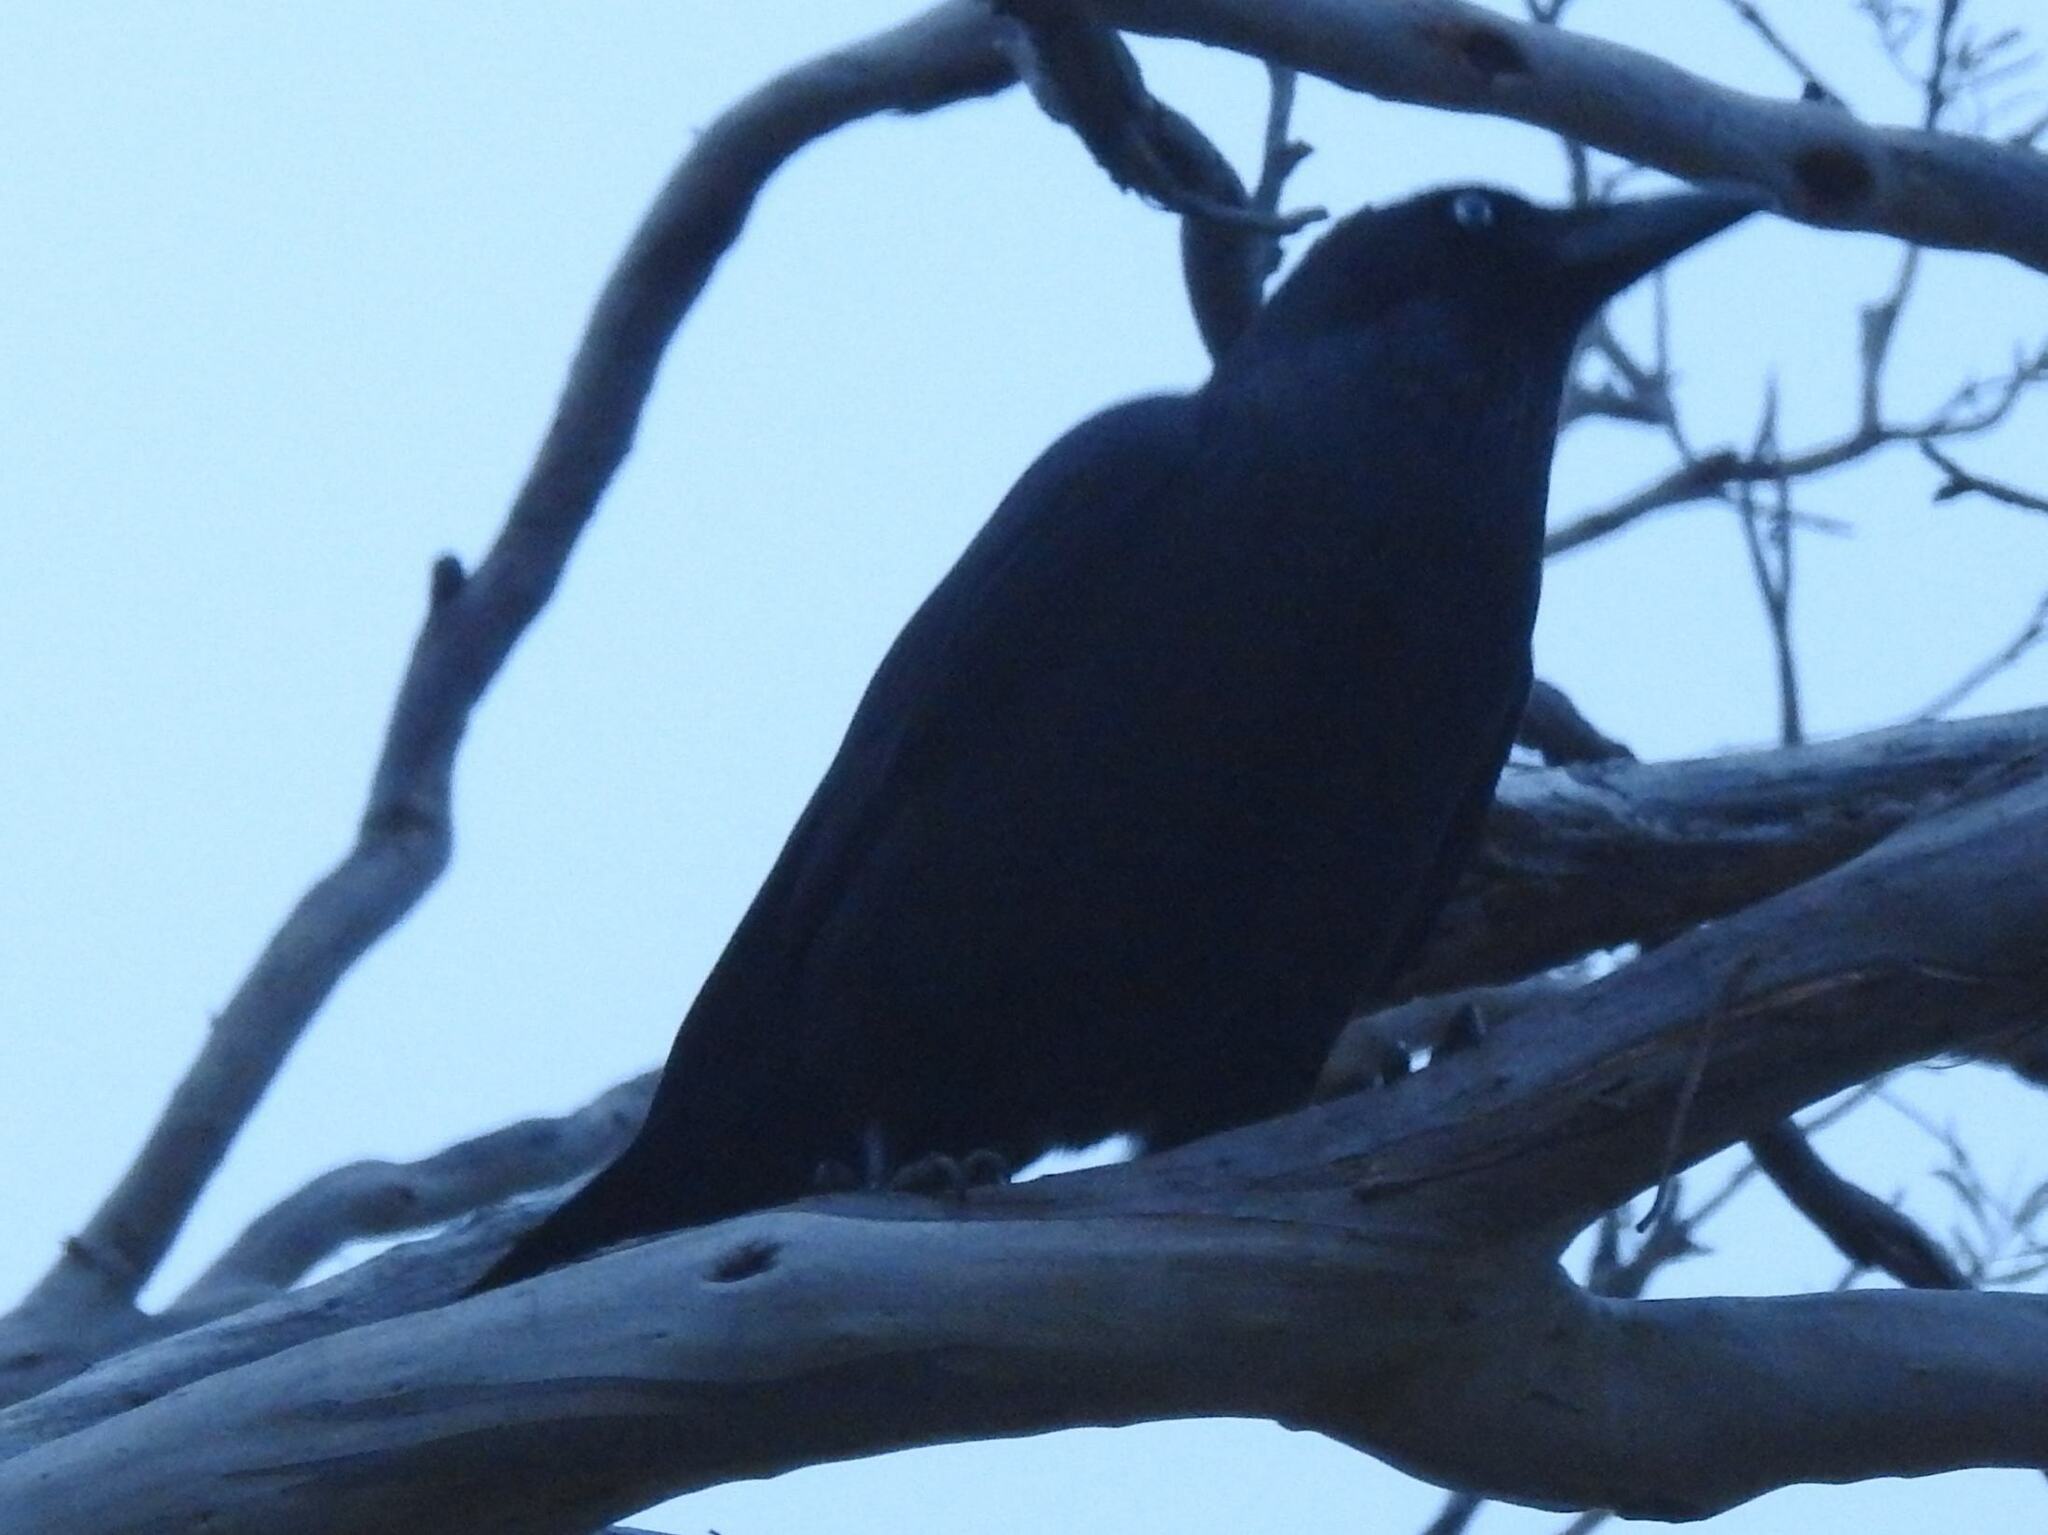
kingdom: Animalia
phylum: Chordata
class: Aves
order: Passeriformes
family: Corvidae
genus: Corvus
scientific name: Corvus tasmanicus
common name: Forest raven
